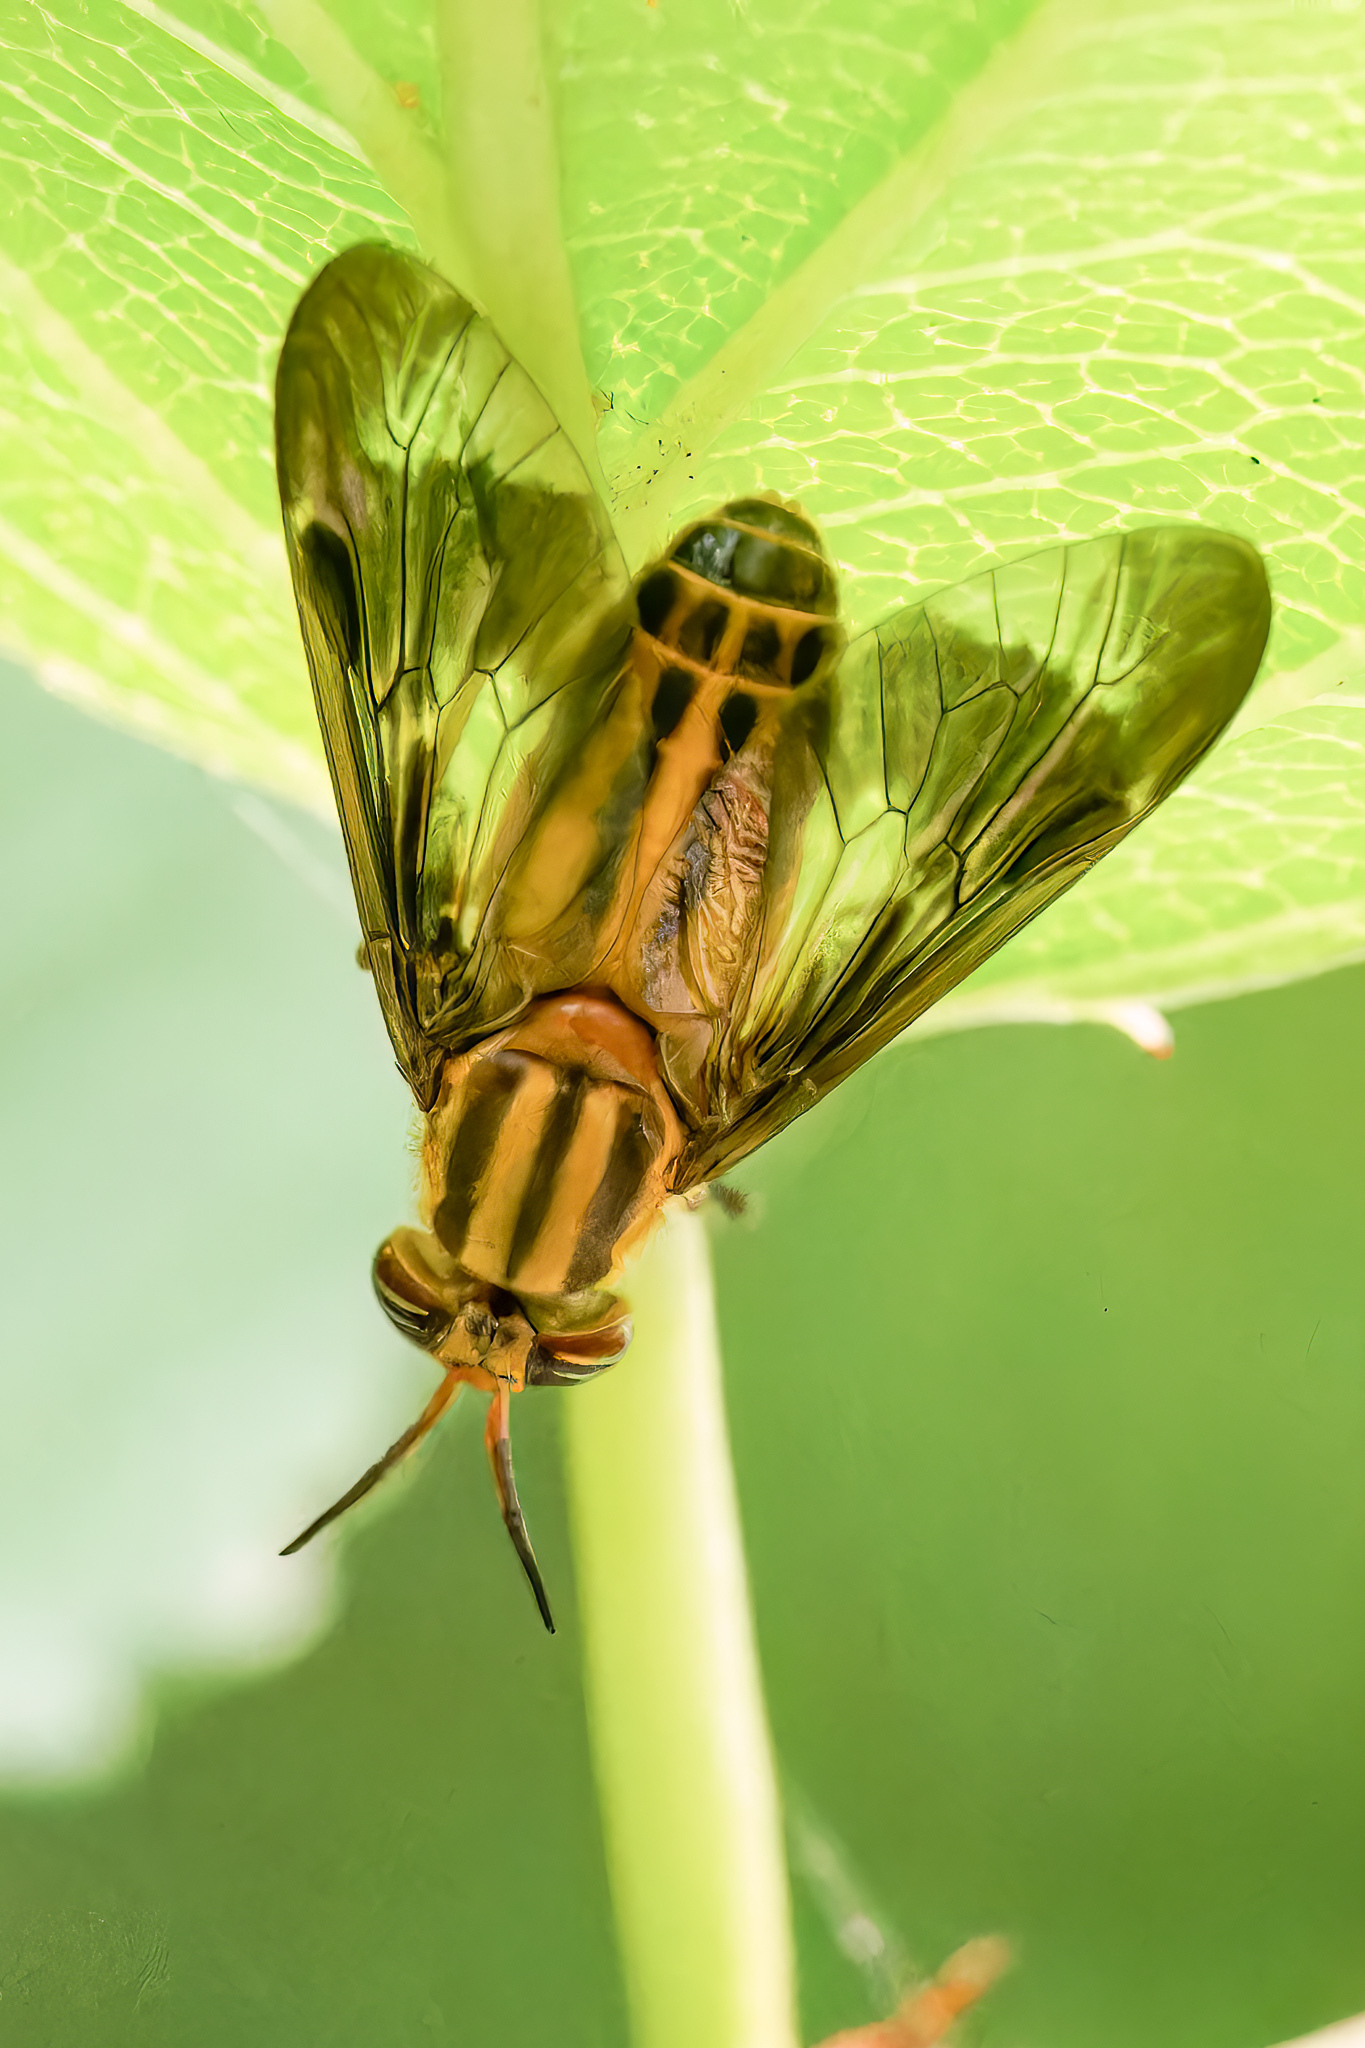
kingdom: Animalia
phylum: Arthropoda
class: Insecta
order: Diptera
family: Tabanidae
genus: Chrysops
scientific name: Chrysops vittatus
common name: Striped deer fly
